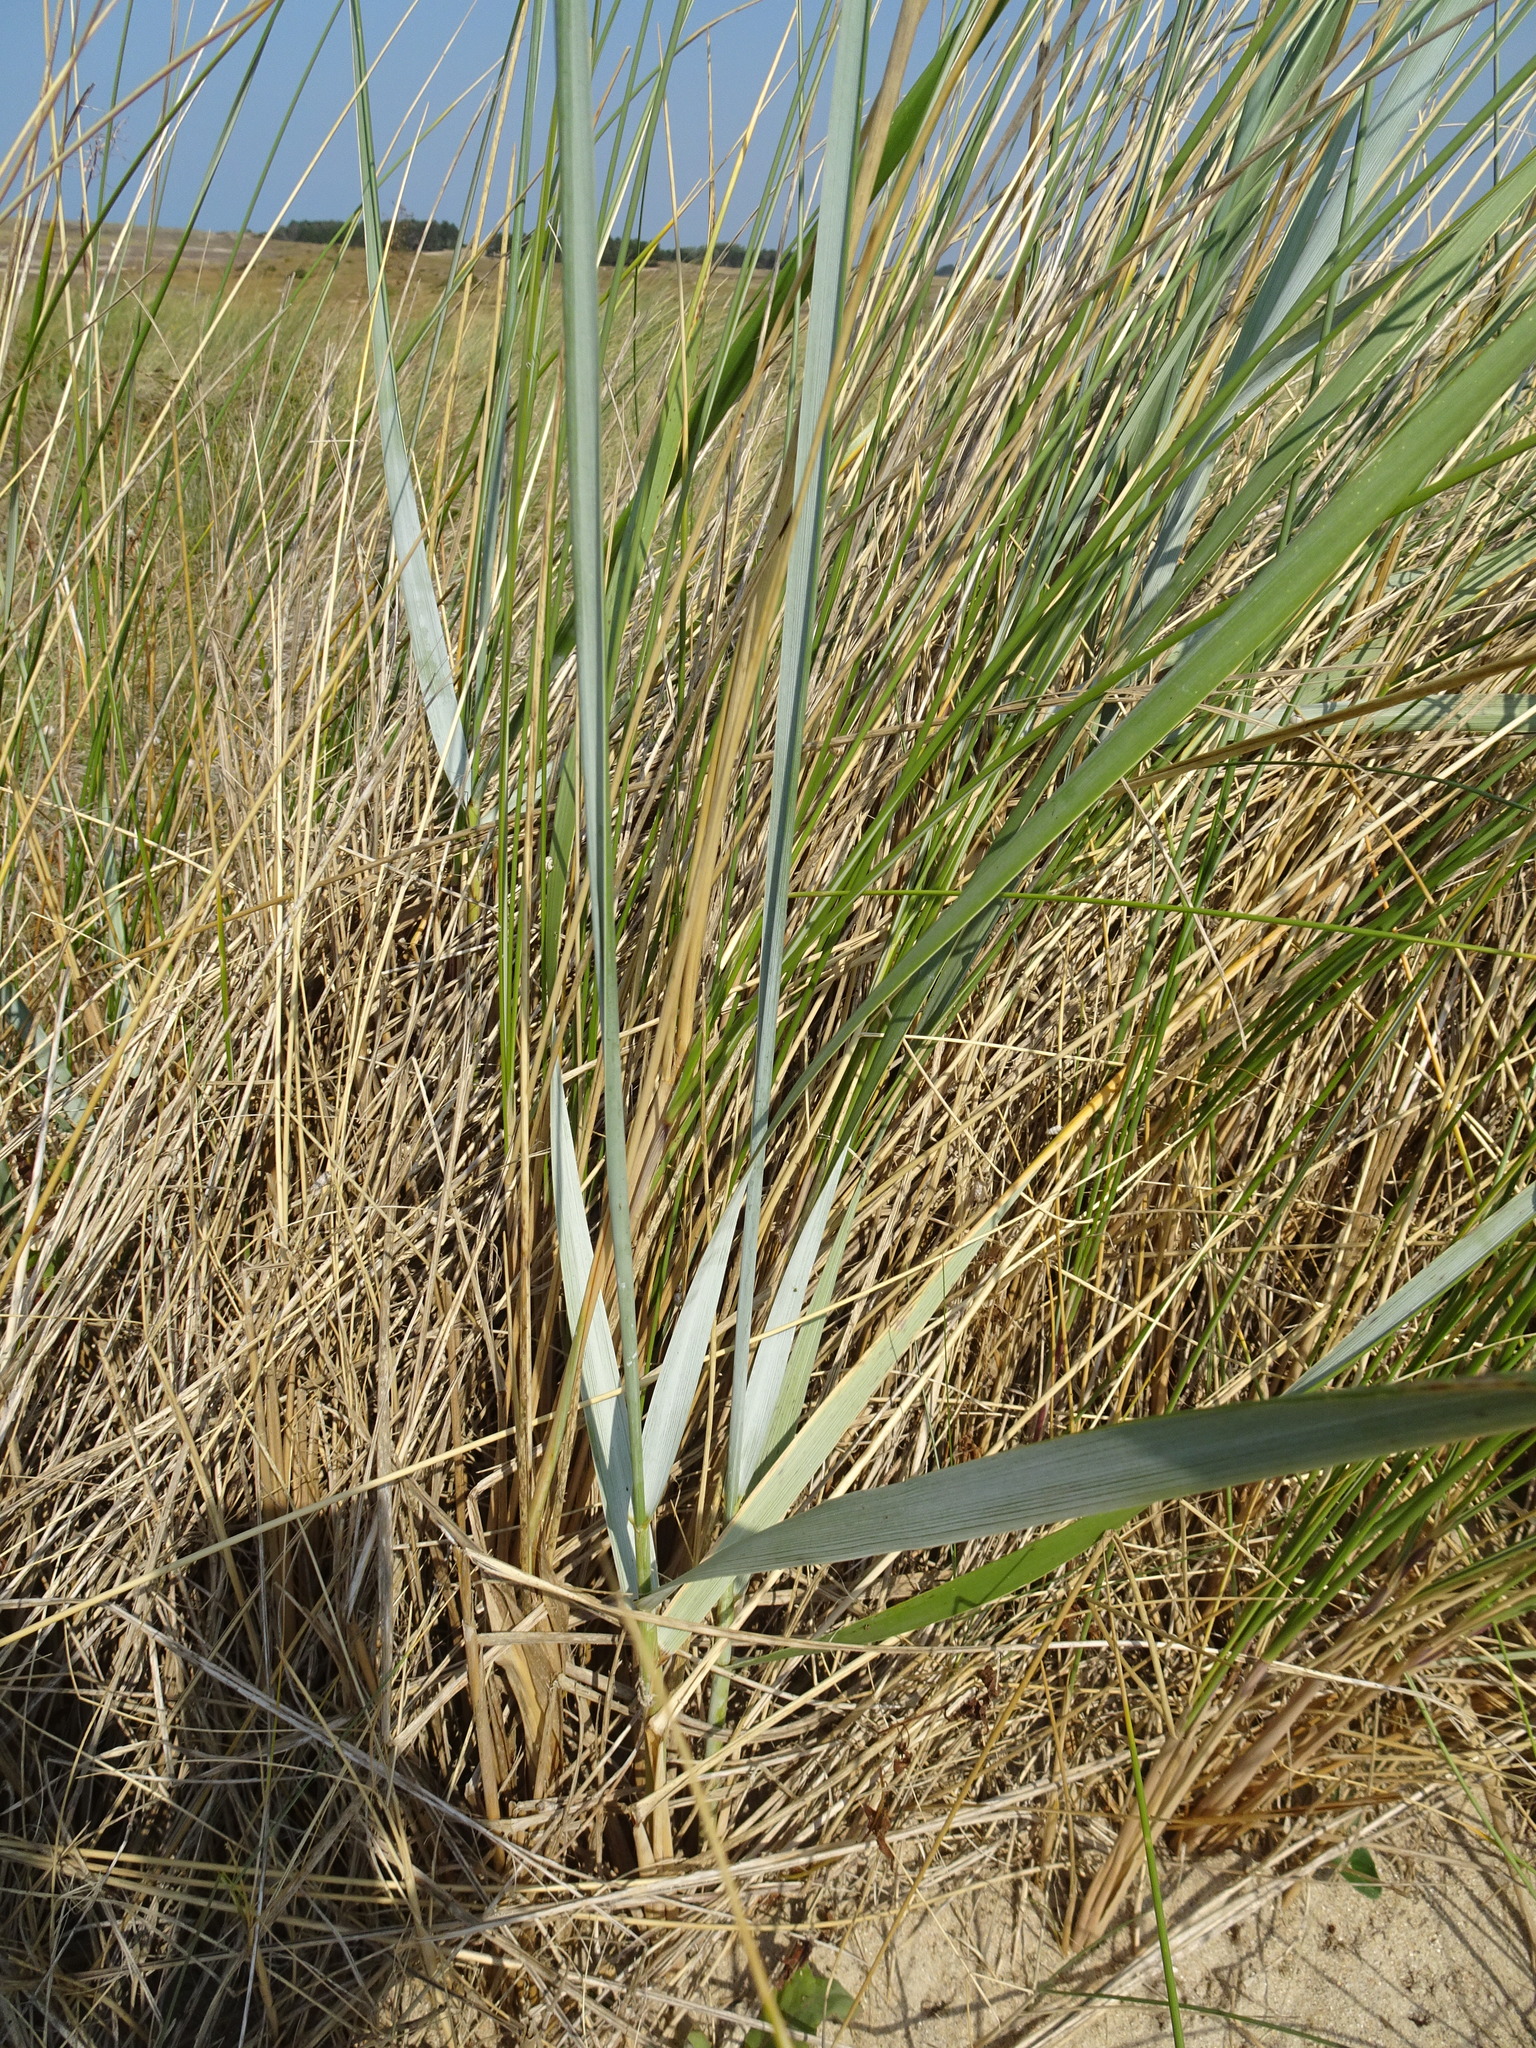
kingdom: Plantae
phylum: Tracheophyta
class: Liliopsida
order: Poales
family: Poaceae
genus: Leymus
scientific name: Leymus arenarius
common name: Lyme-grass
